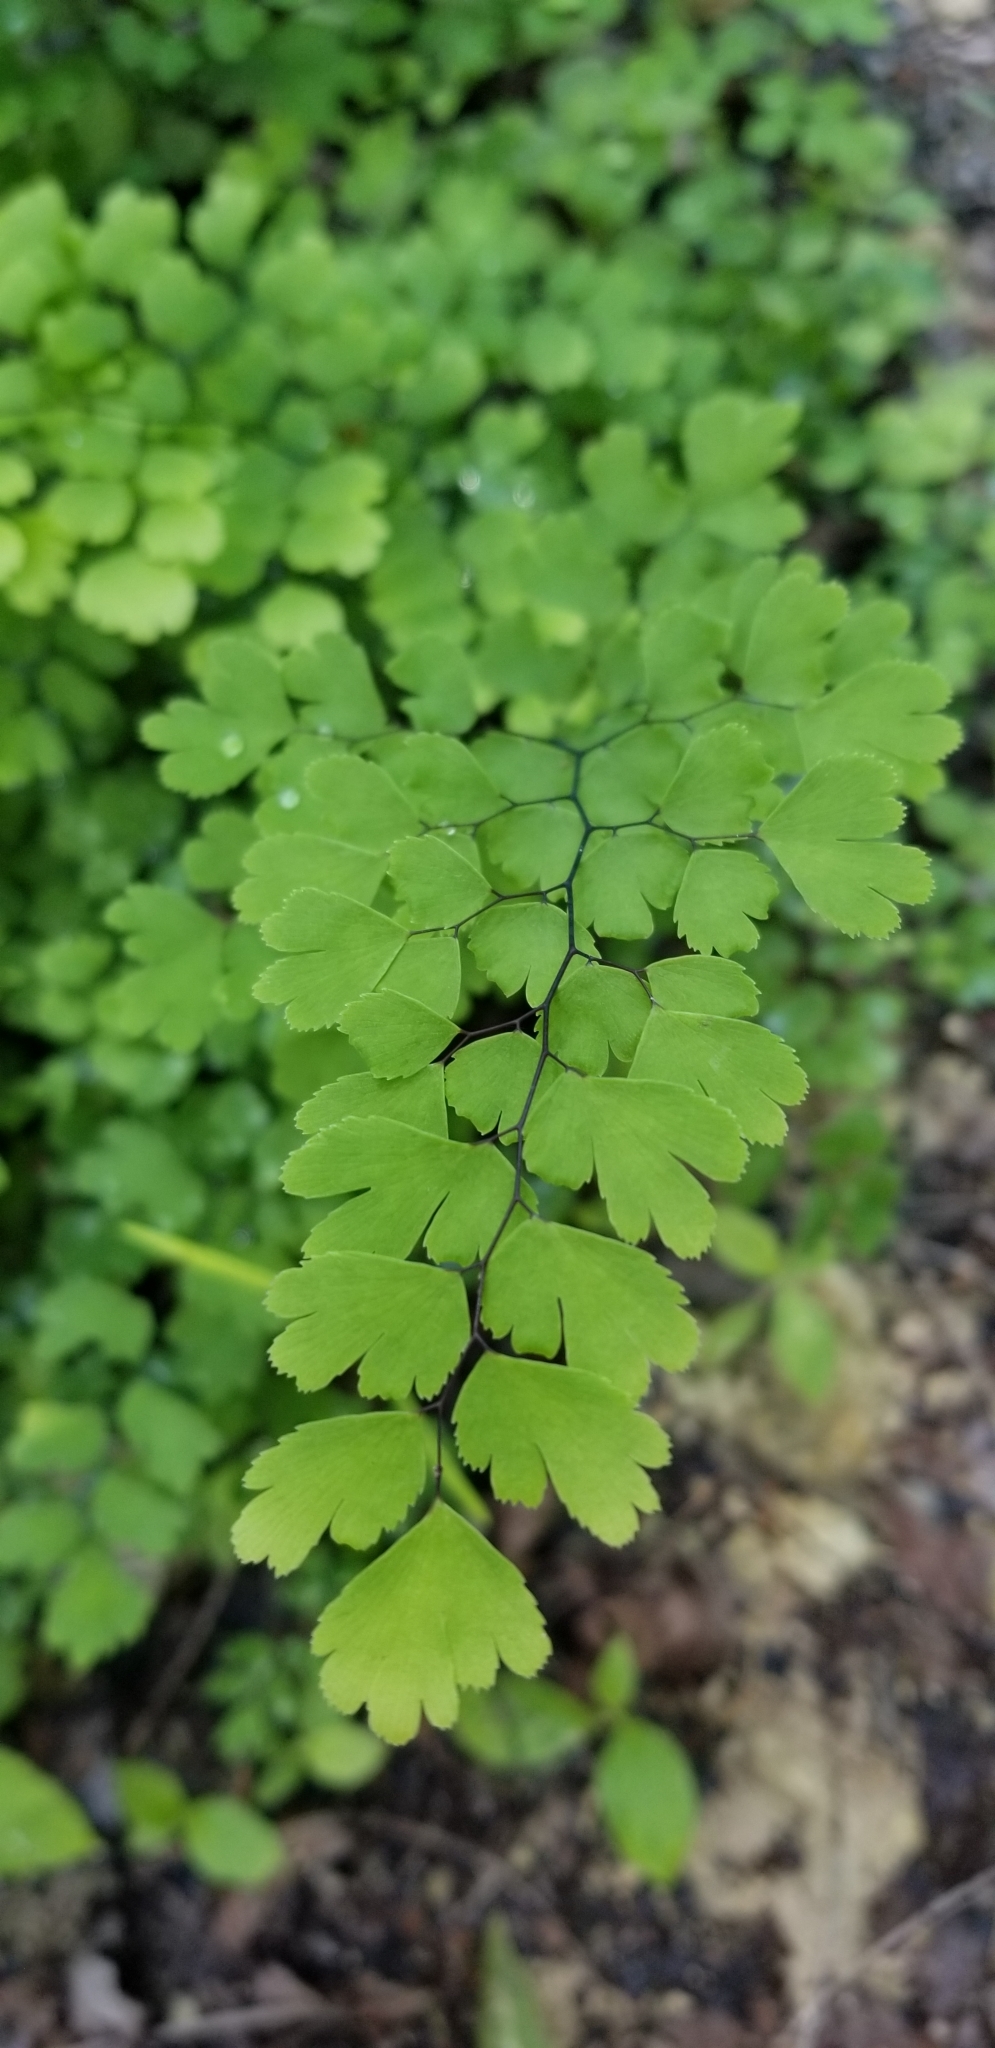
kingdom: Plantae
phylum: Tracheophyta
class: Polypodiopsida
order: Polypodiales
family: Pteridaceae
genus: Adiantum
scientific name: Adiantum capillus-veneris
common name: Maidenhair fern
